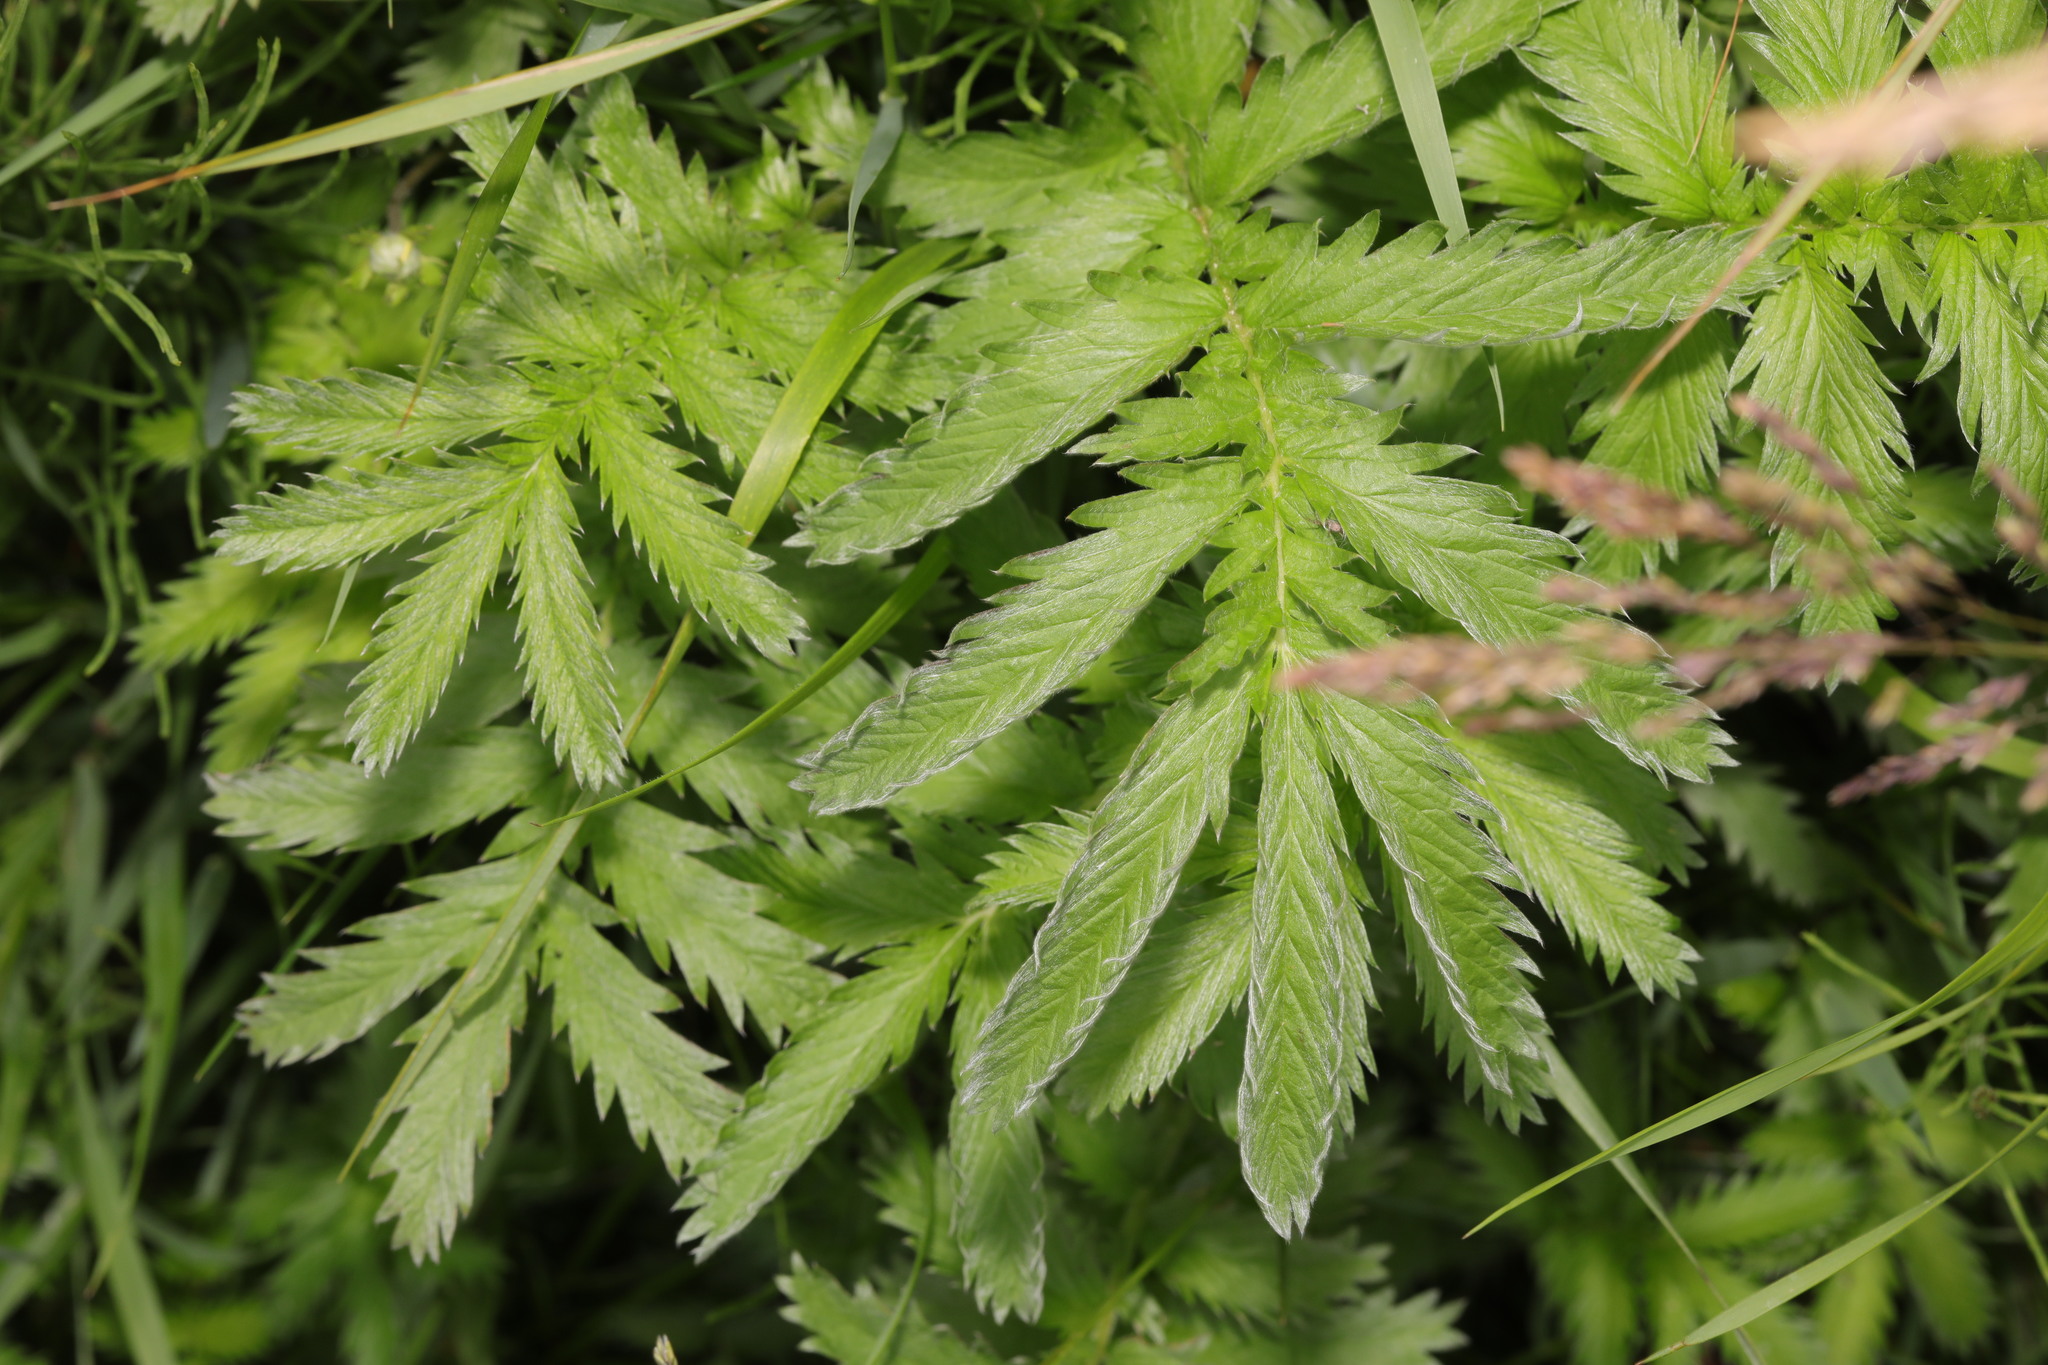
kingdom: Plantae
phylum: Tracheophyta
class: Magnoliopsida
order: Rosales
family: Rosaceae
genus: Argentina
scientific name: Argentina anserina
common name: Common silverweed
